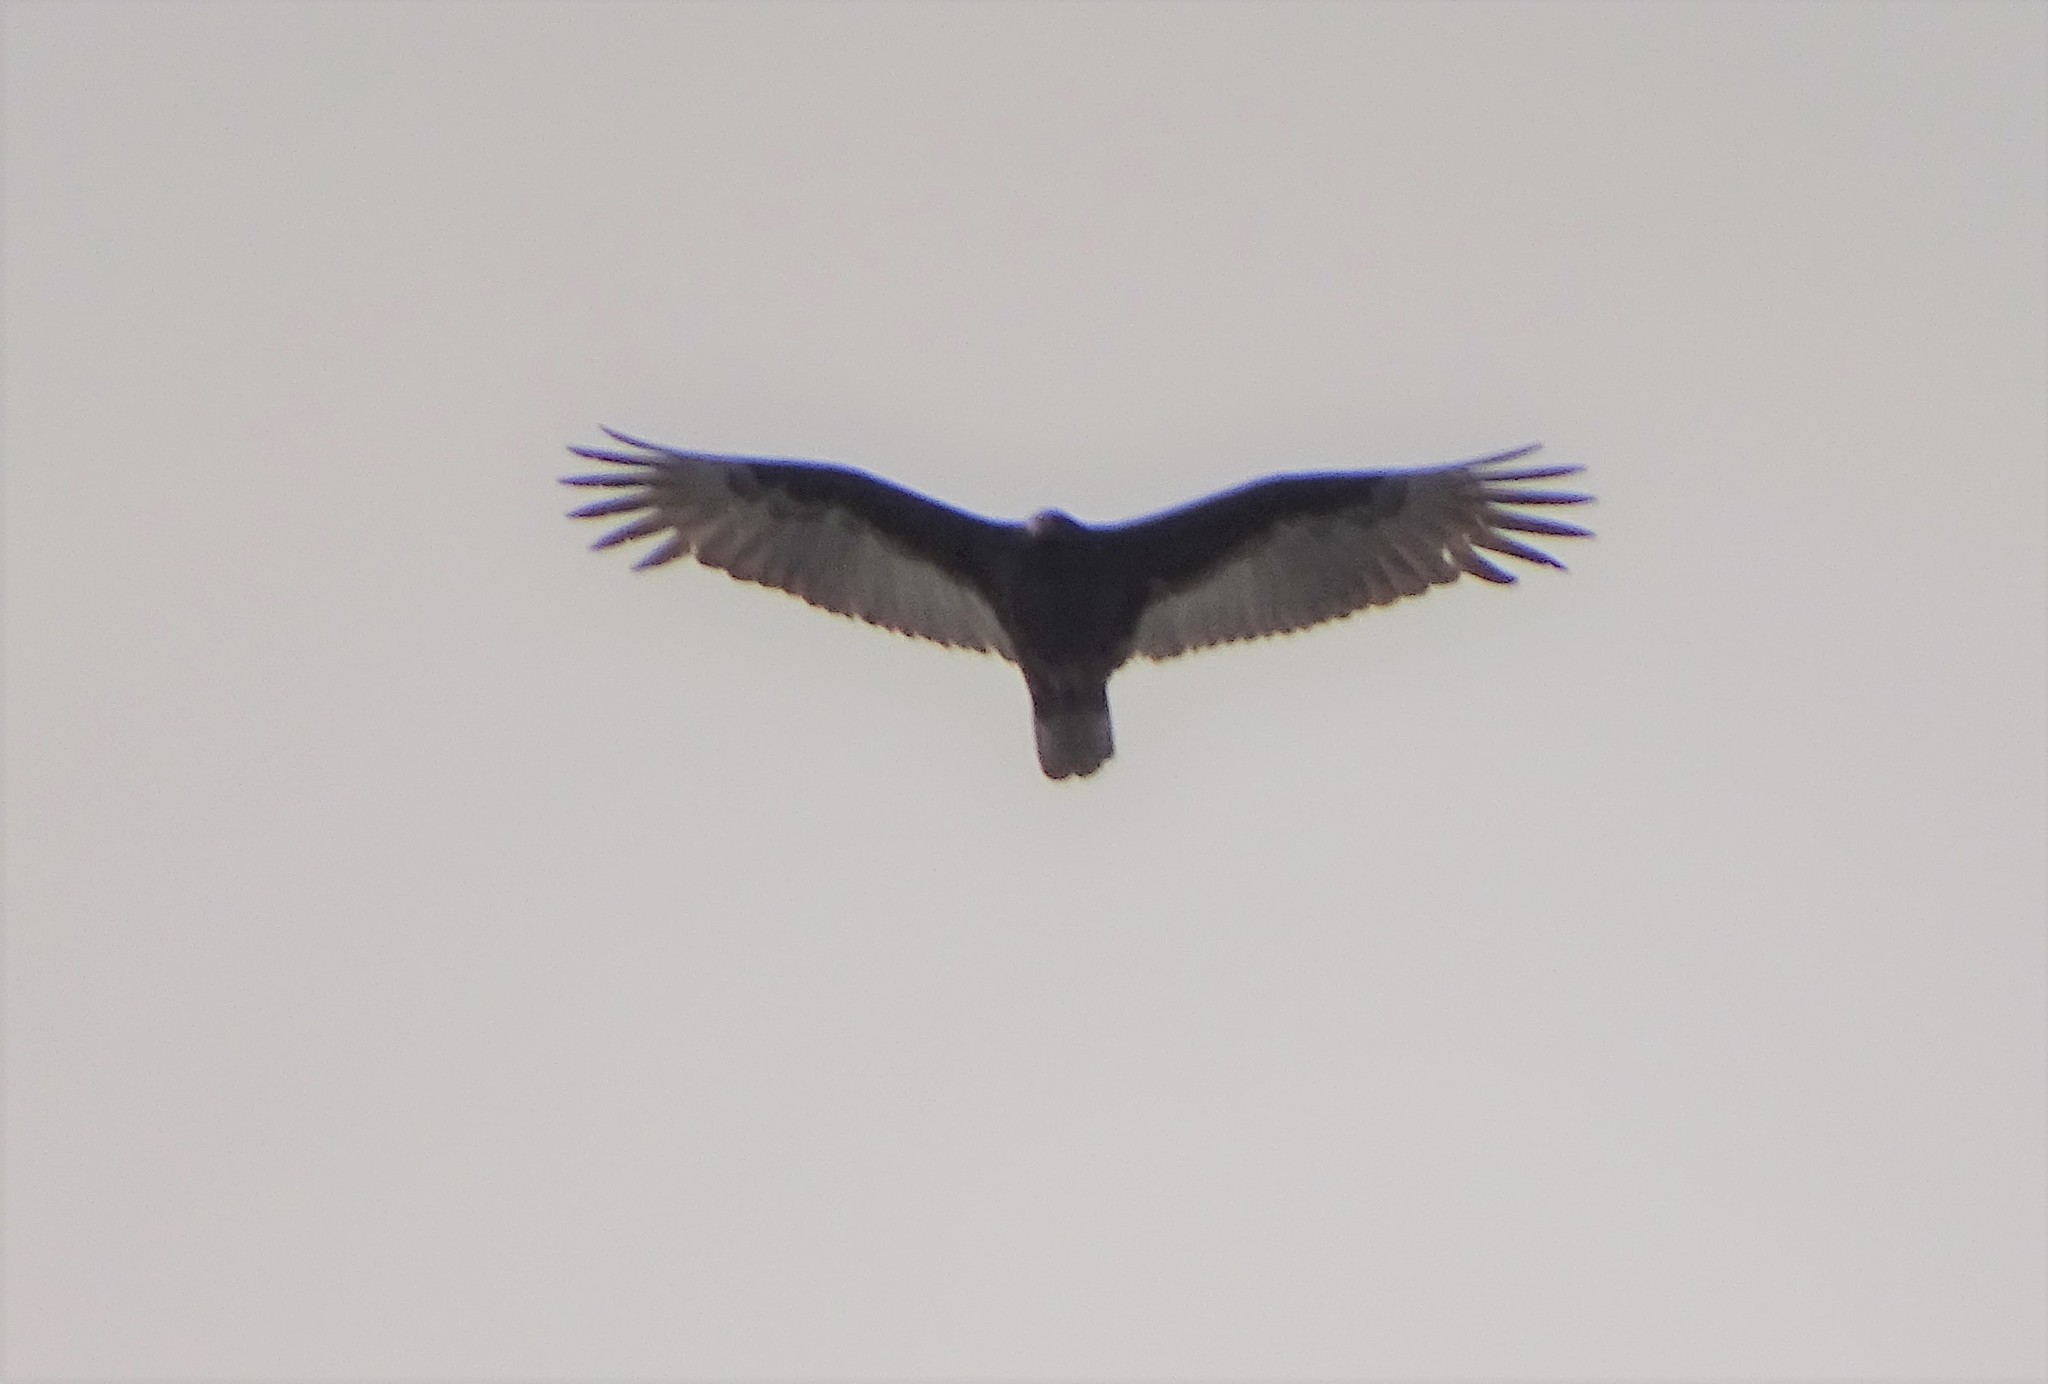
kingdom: Animalia
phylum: Chordata
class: Aves
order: Accipitriformes
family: Cathartidae
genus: Cathartes
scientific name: Cathartes aura
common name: Turkey vulture
